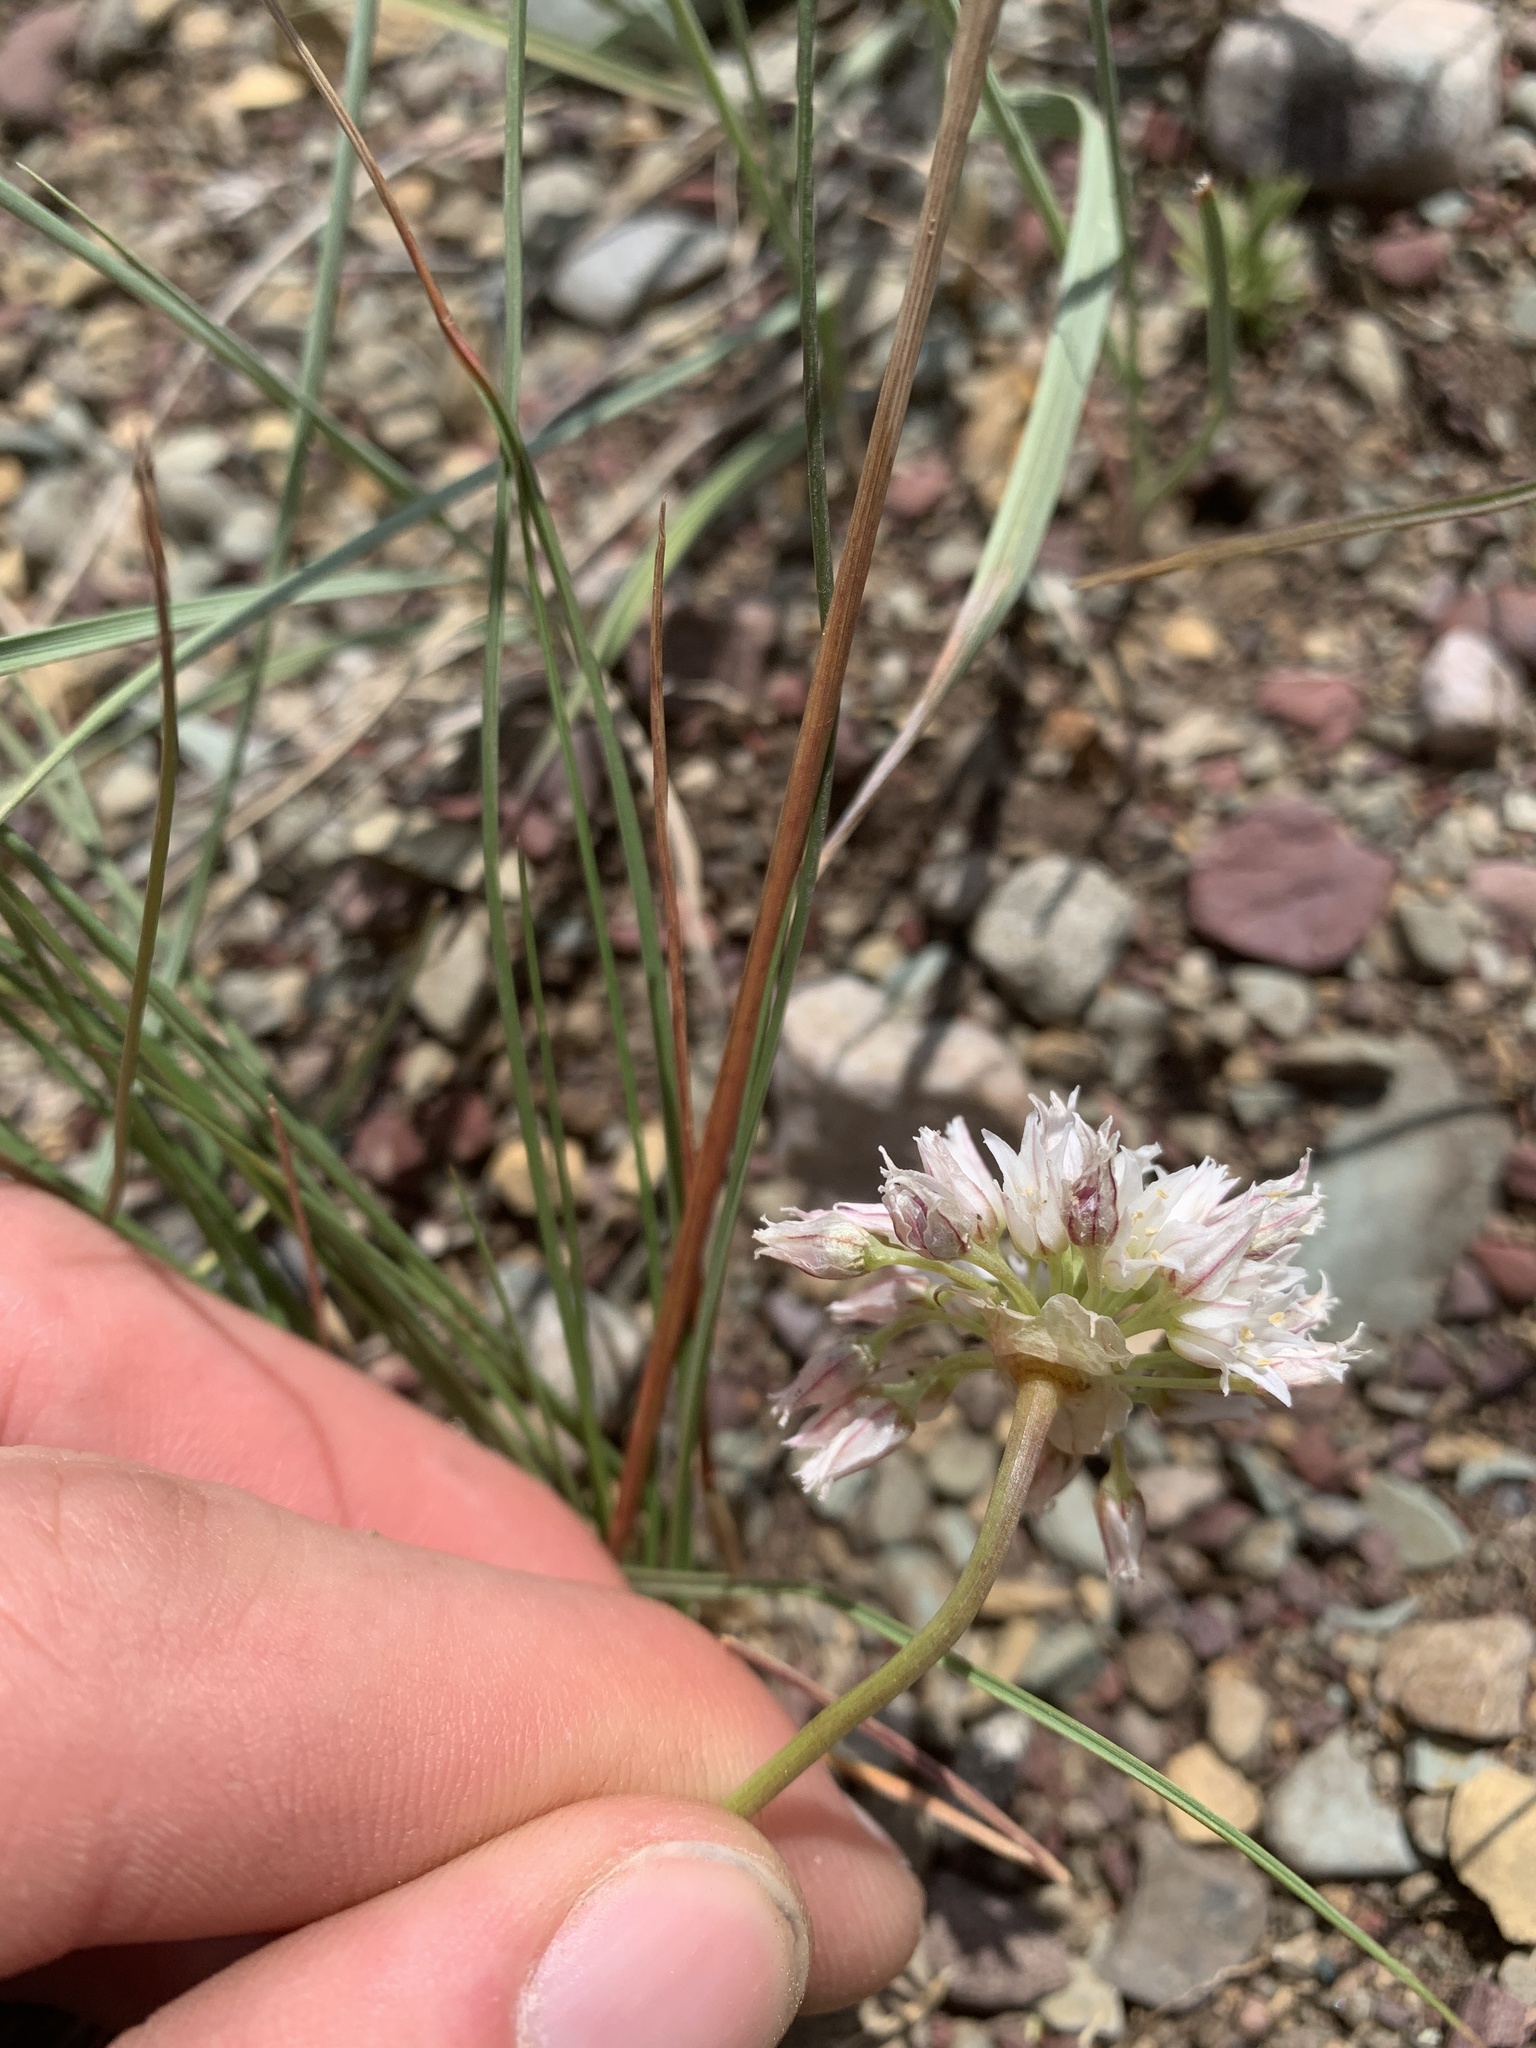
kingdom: Plantae
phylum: Tracheophyta
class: Liliopsida
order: Asparagales
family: Amaryllidaceae
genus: Allium
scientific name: Allium textile
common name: Prairie onion
